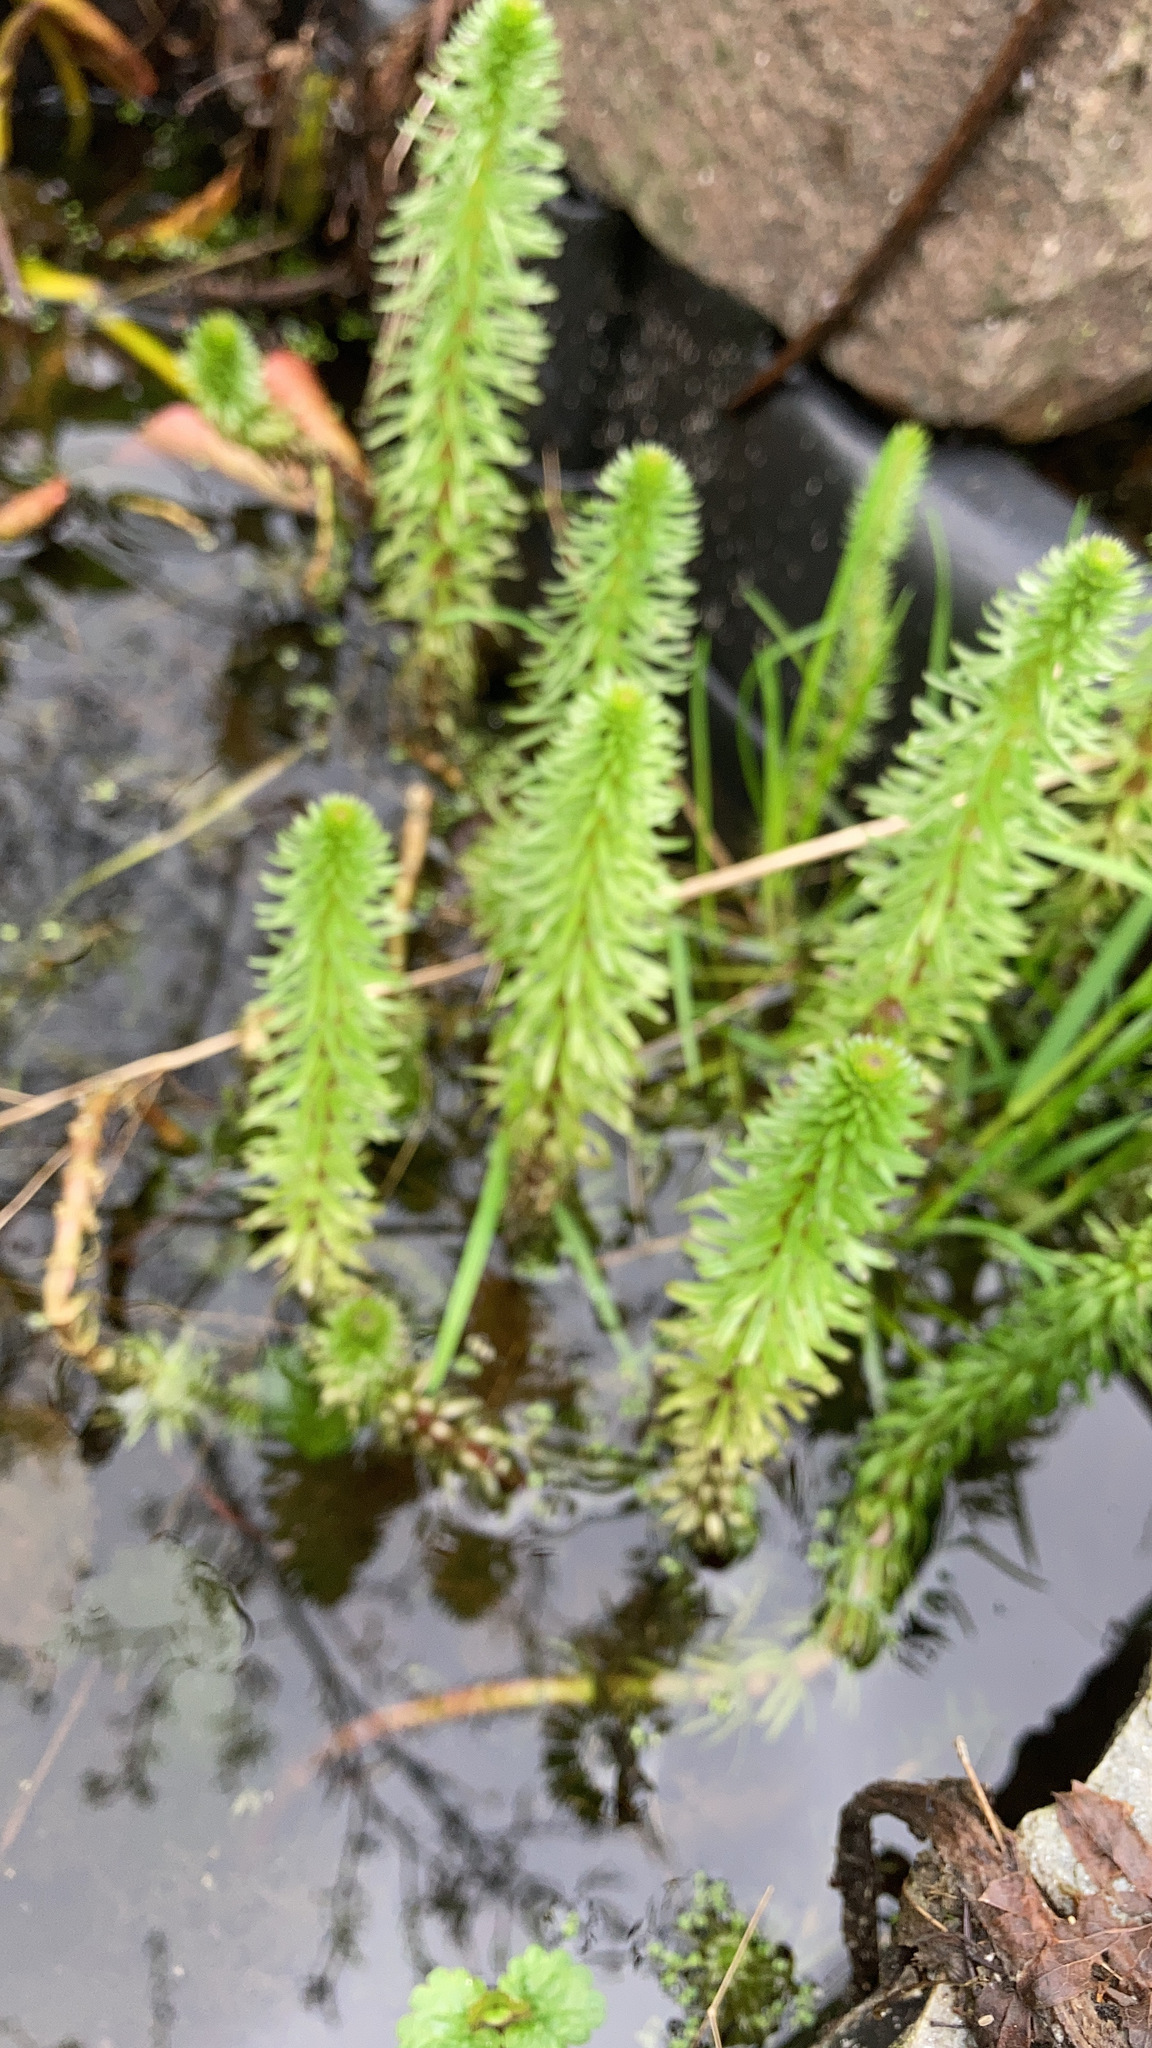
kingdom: Plantae
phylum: Tracheophyta
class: Magnoliopsida
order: Lamiales
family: Plantaginaceae
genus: Hippuris
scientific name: Hippuris vulgaris
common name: Mare's-tail
